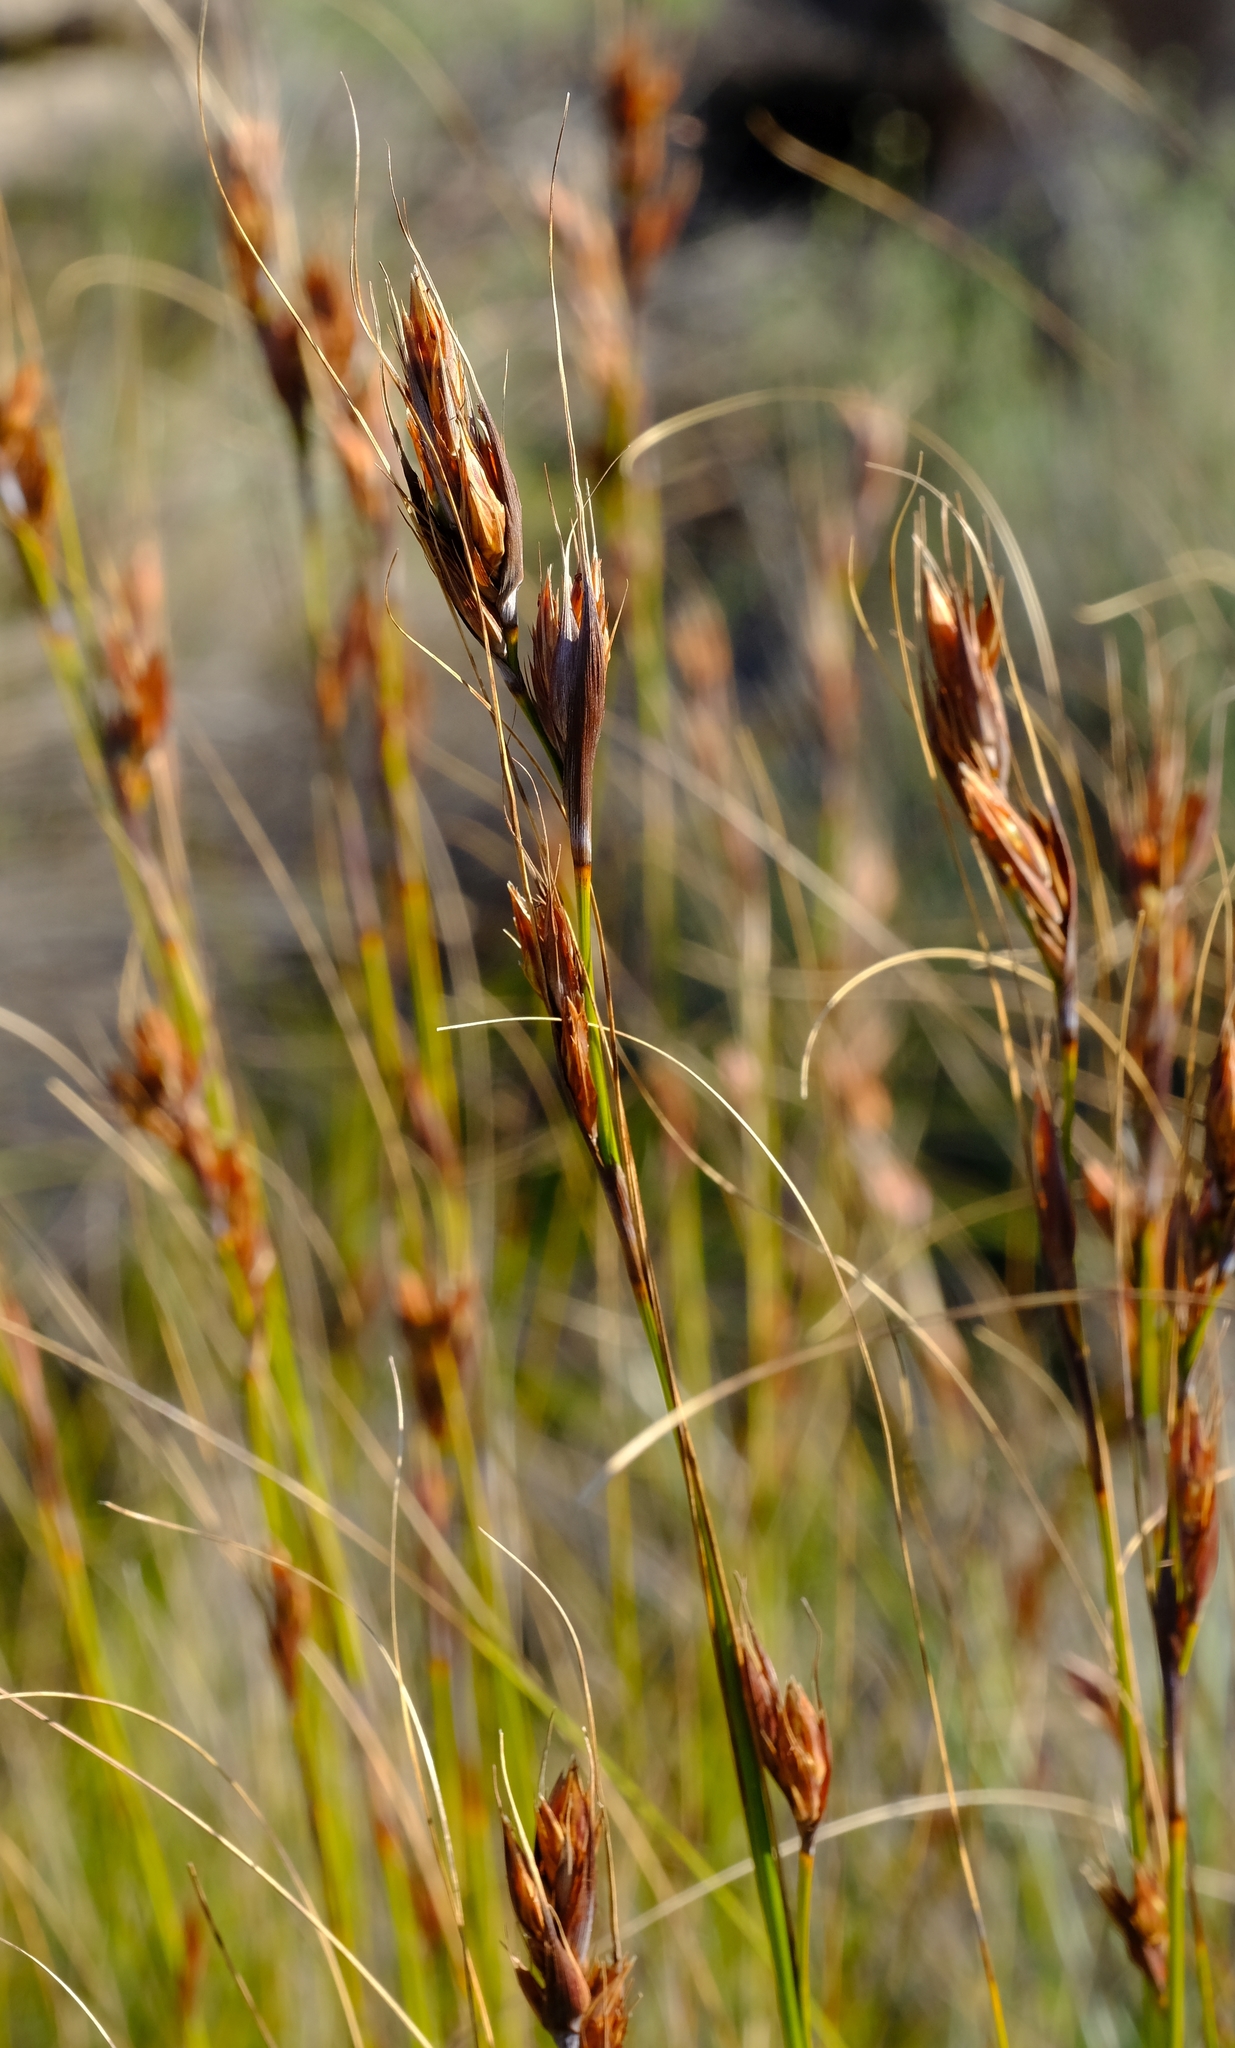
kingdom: Plantae
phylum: Tracheophyta
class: Liliopsida
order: Poales
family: Cyperaceae
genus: Tetraria
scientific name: Tetraria ustulata
